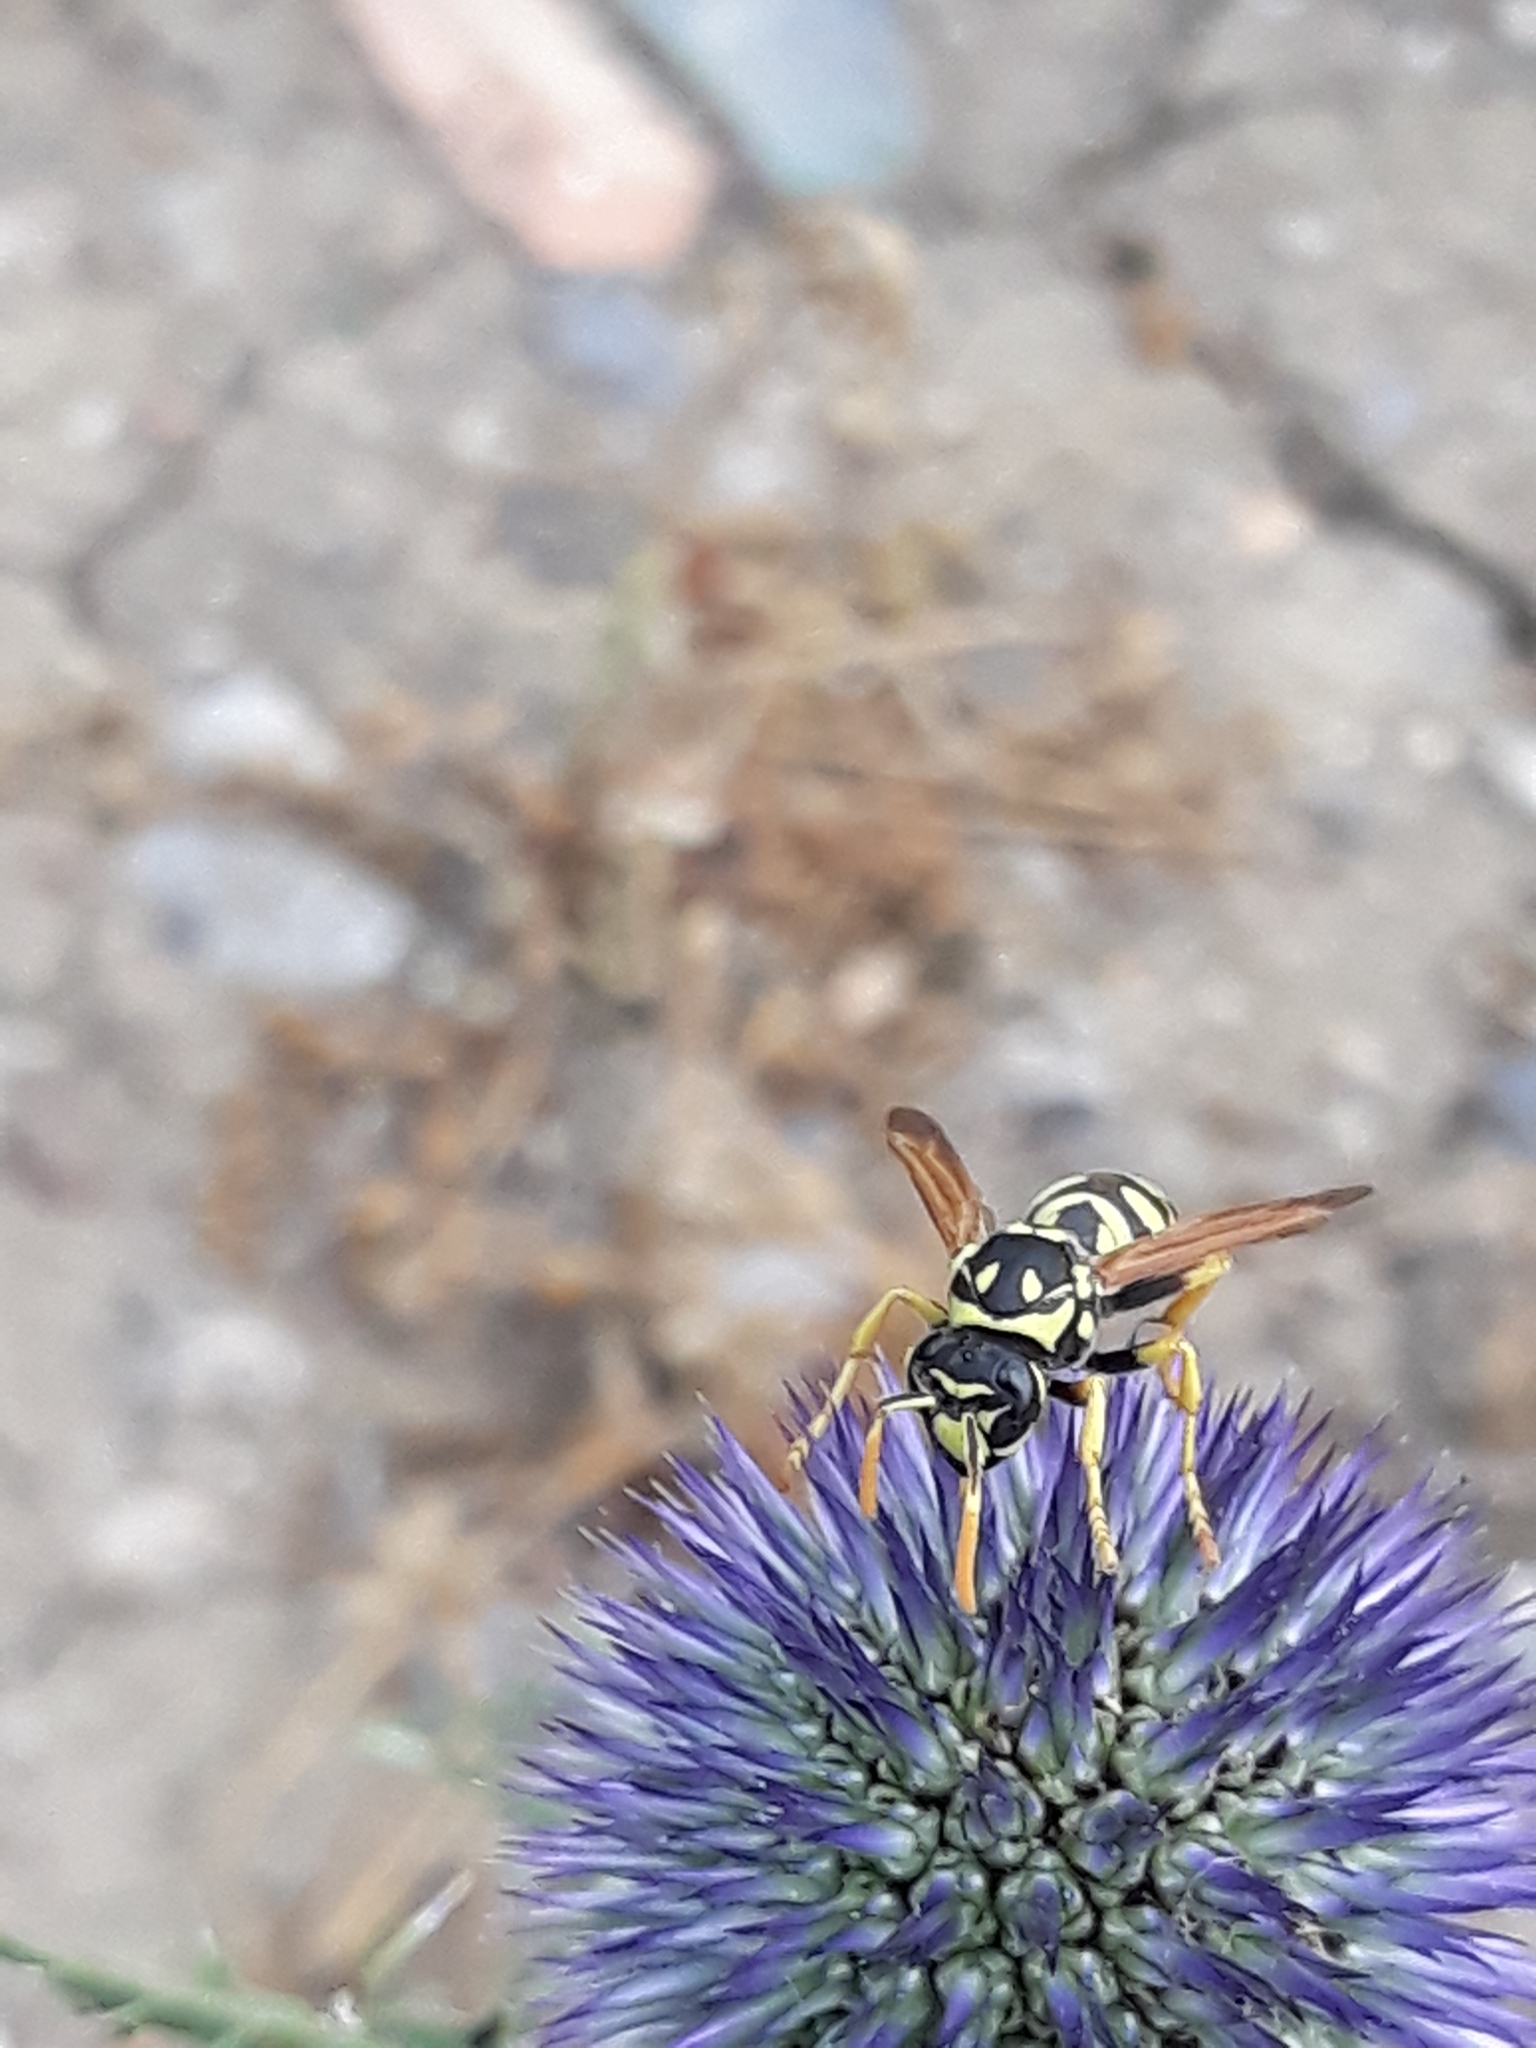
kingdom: Animalia
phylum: Arthropoda
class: Insecta
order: Hymenoptera
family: Eumenidae
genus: Polistes
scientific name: Polistes dominula
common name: Paper wasp
